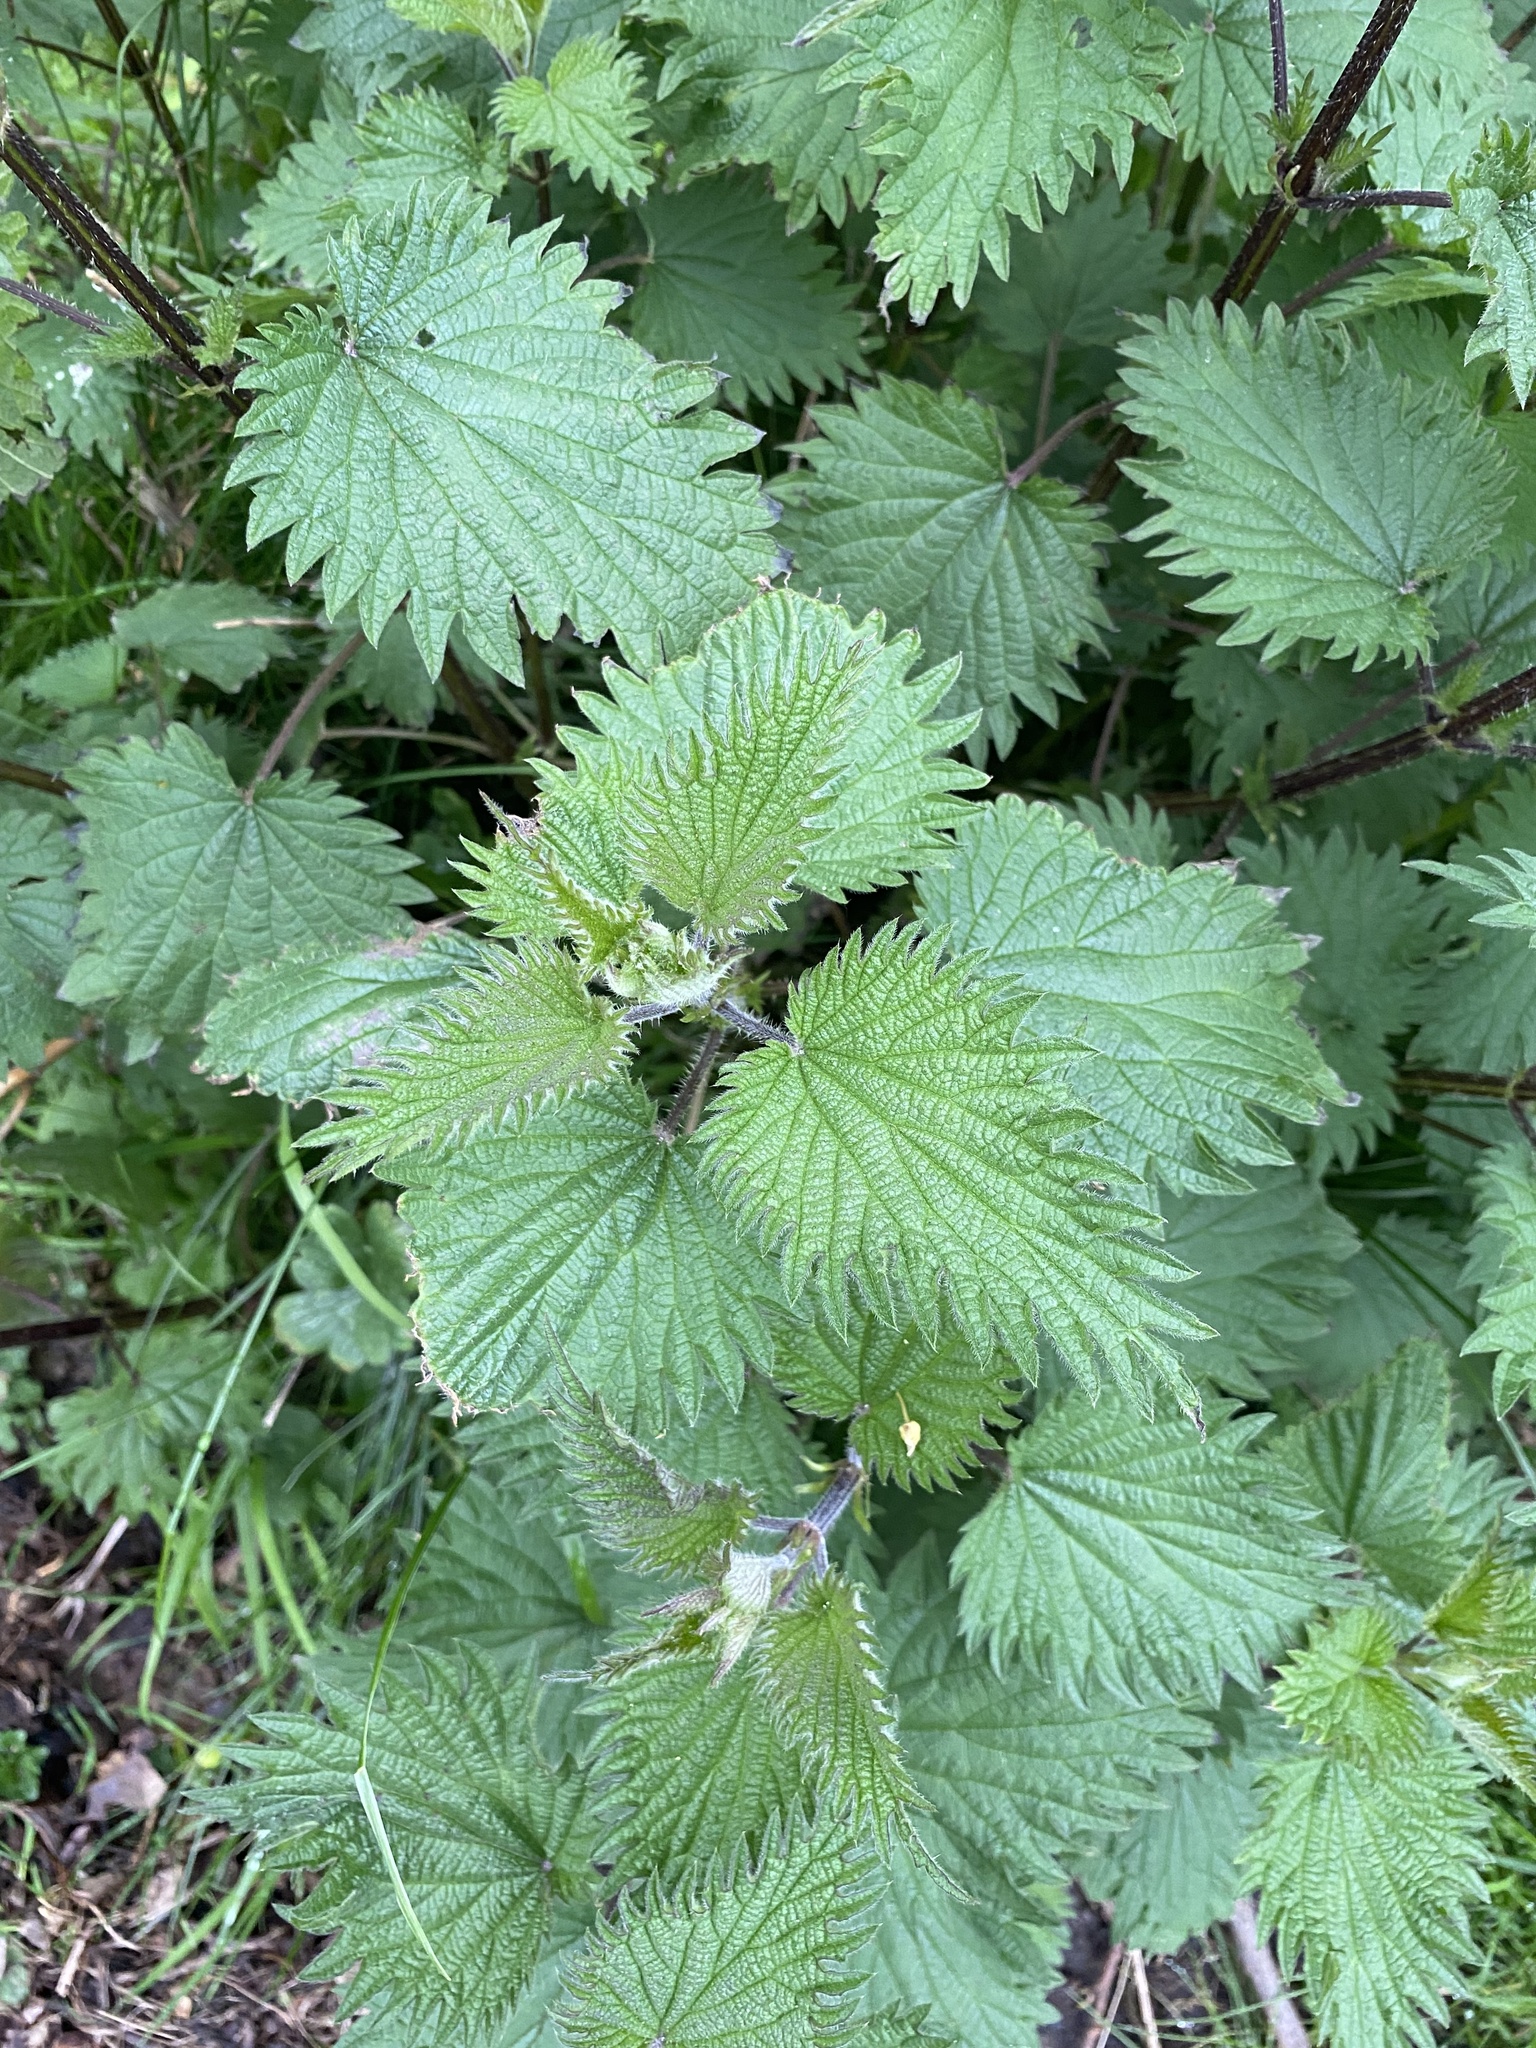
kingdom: Plantae
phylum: Tracheophyta
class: Magnoliopsida
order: Rosales
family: Urticaceae
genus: Urtica
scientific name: Urtica dioica
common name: Common nettle
